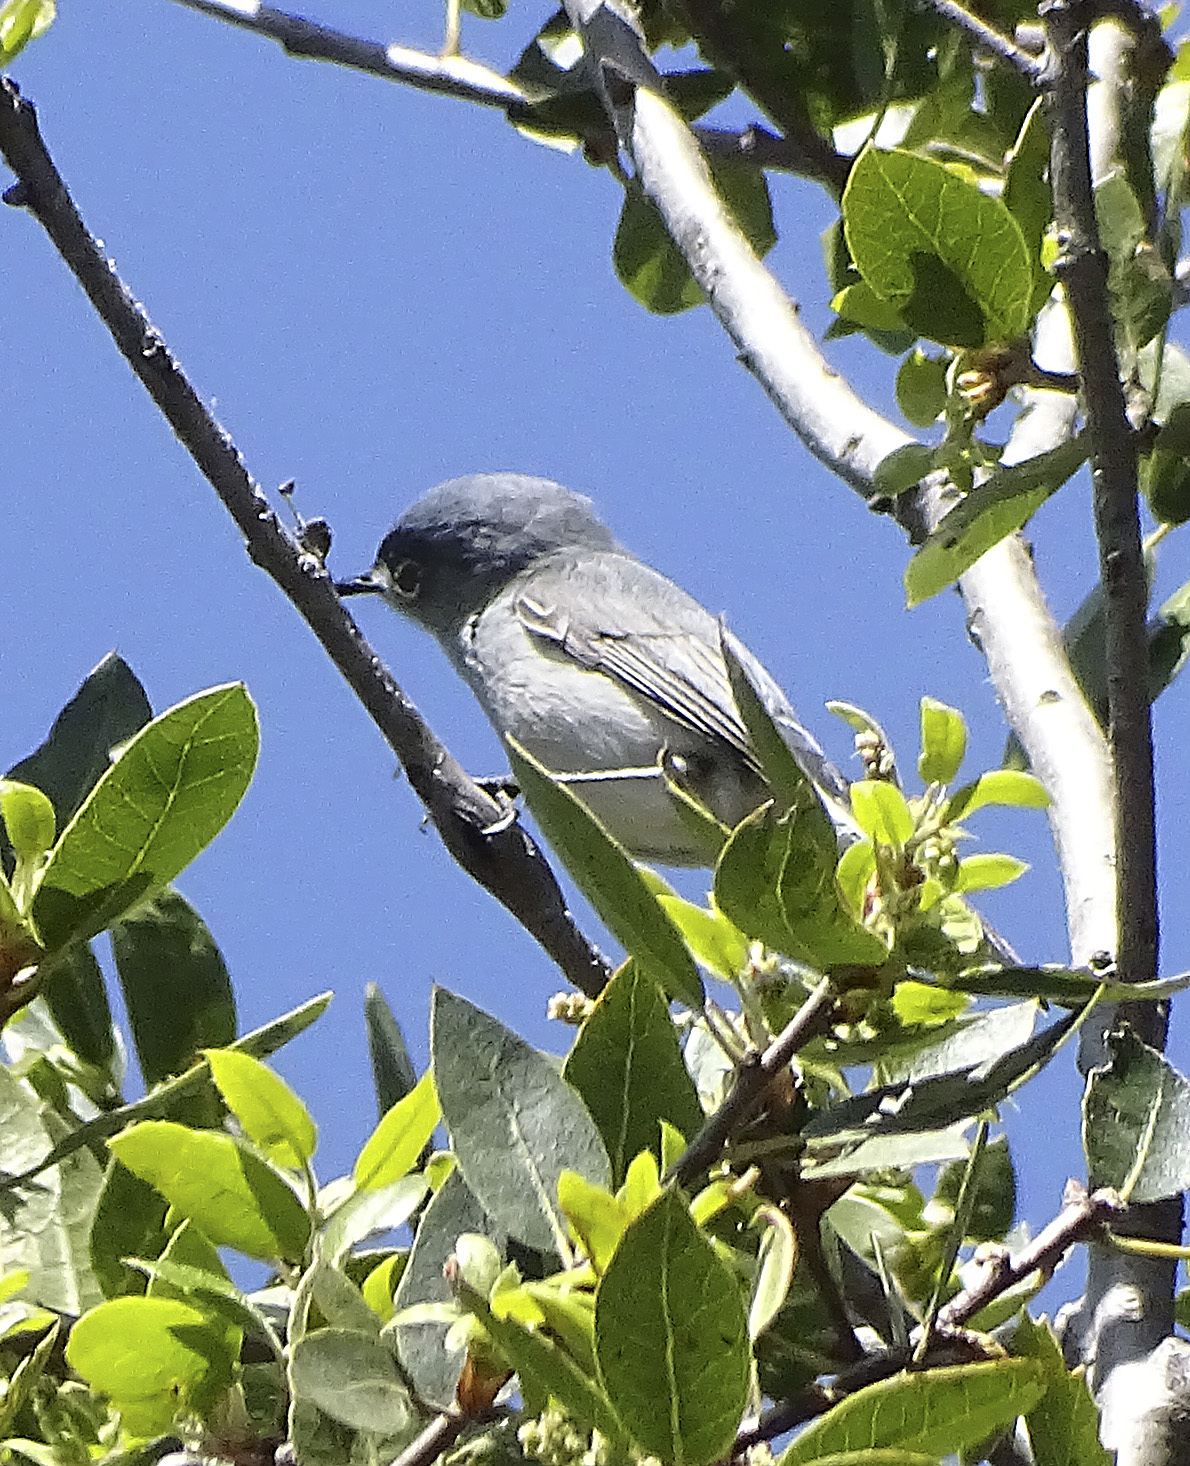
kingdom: Animalia
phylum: Chordata
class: Aves
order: Passeriformes
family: Polioptilidae
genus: Polioptila
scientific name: Polioptila caerulea
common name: Blue-gray gnatcatcher
